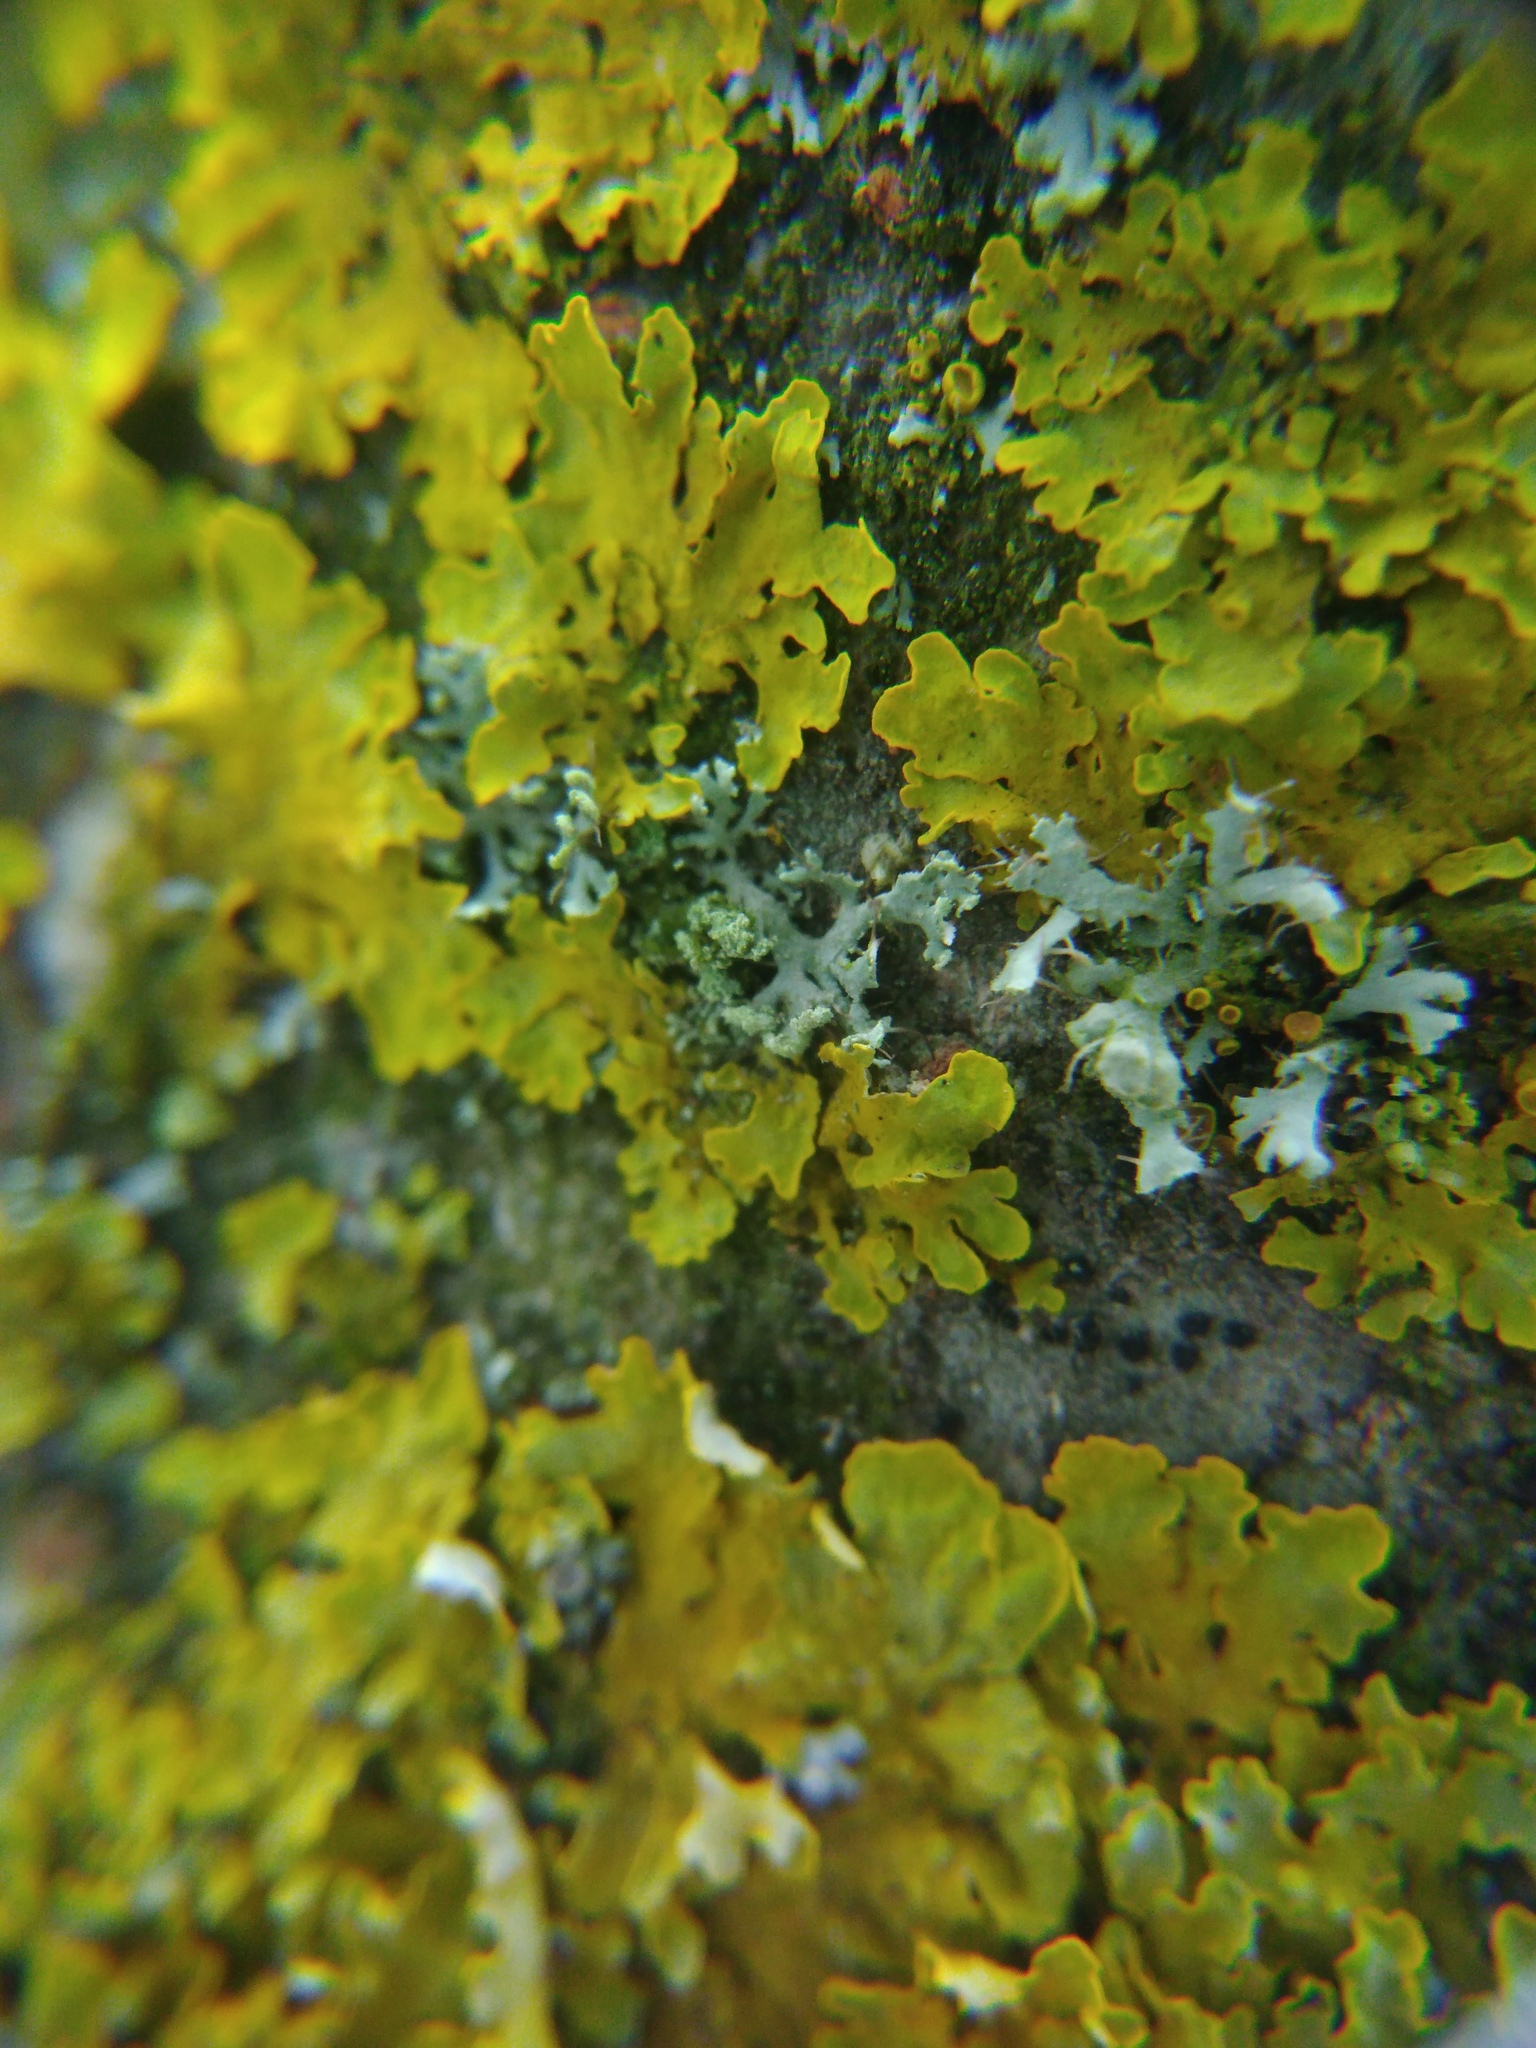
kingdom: Fungi
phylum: Ascomycota
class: Lecanoromycetes
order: Caliciales
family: Physciaceae
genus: Physcia
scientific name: Physcia tenella
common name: Fringed rosette lichen
